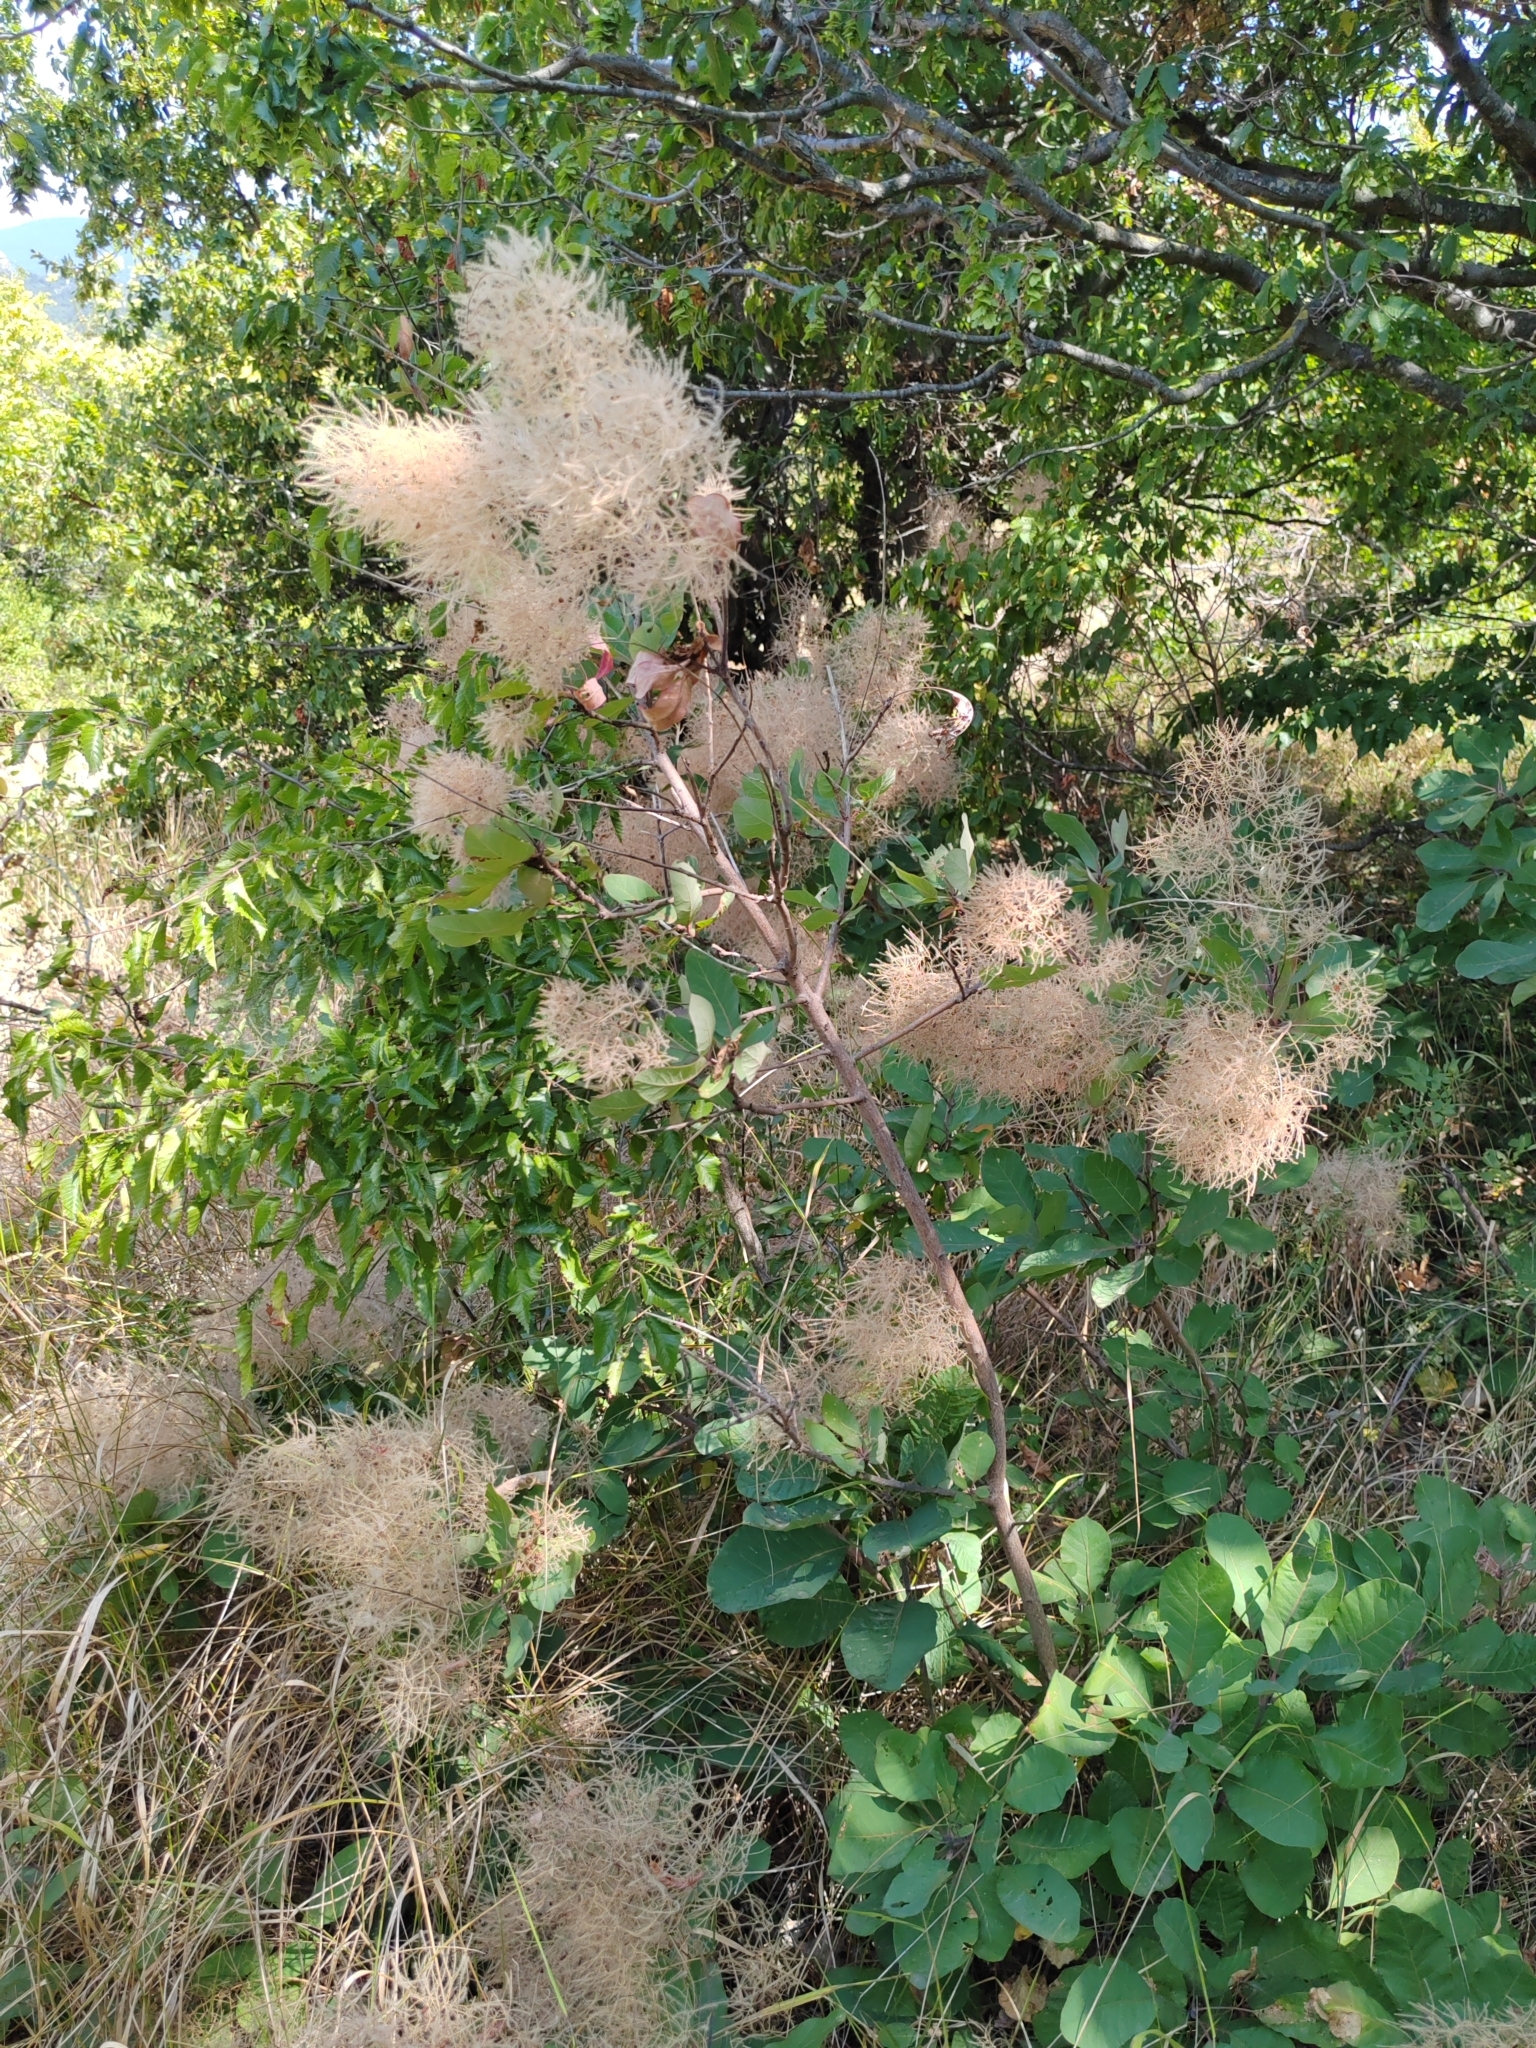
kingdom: Plantae
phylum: Tracheophyta
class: Magnoliopsida
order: Sapindales
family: Anacardiaceae
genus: Cotinus
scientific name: Cotinus coggygria
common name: Smoke-tree
